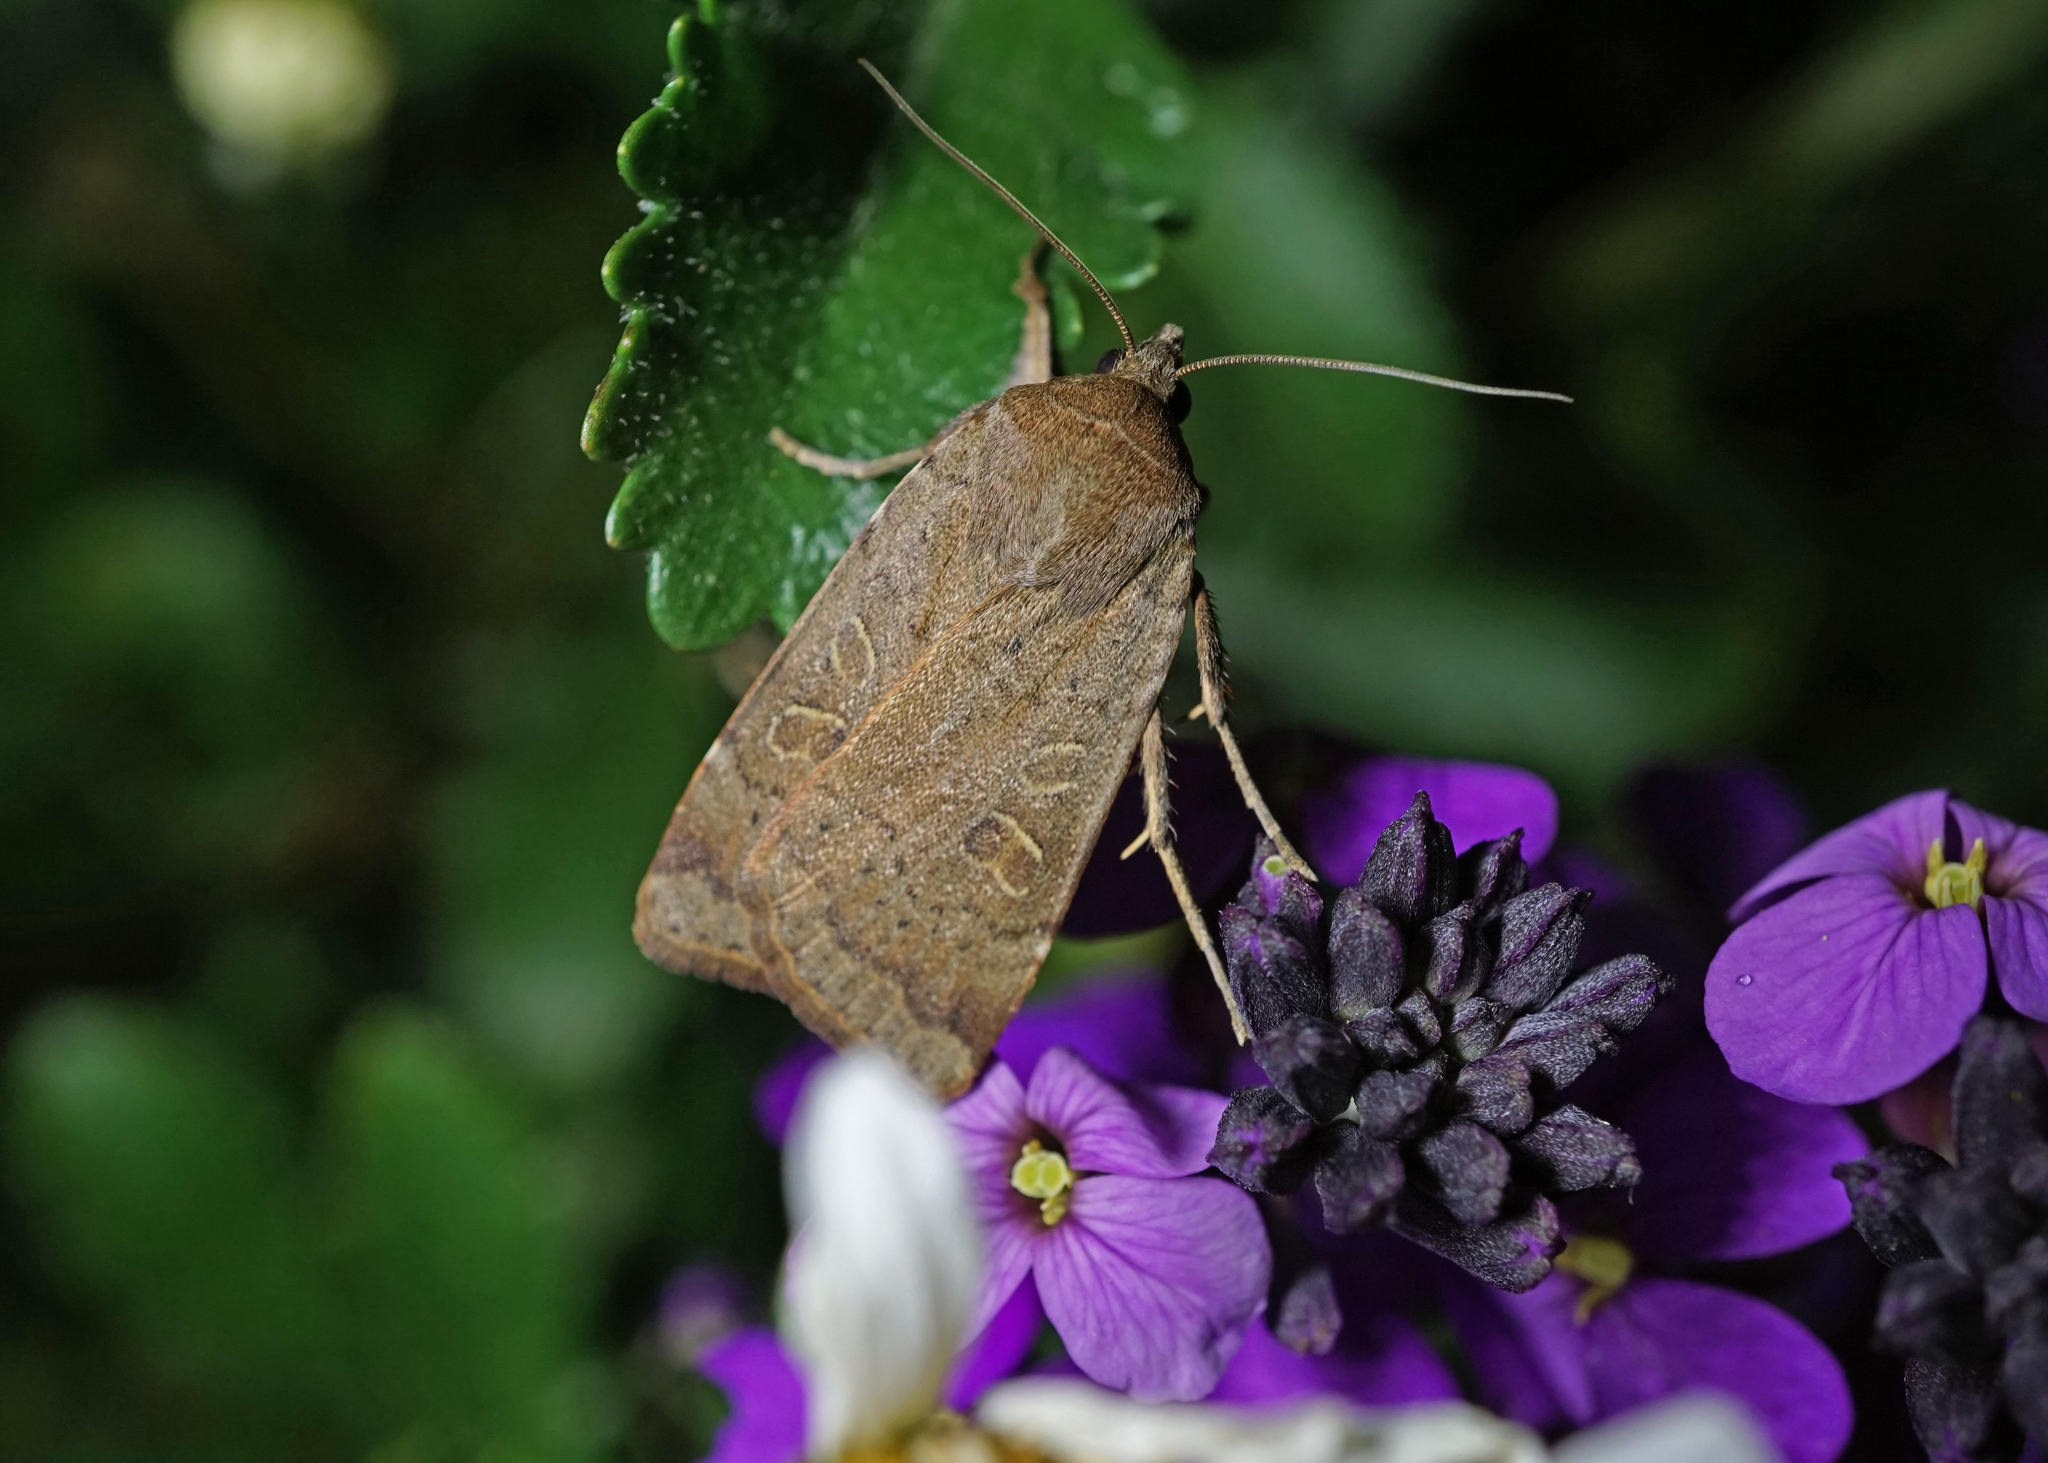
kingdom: Animalia
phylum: Arthropoda
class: Insecta
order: Lepidoptera
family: Noctuidae
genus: Noctua
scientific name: Noctua comes
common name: Lesser yellow underwing
